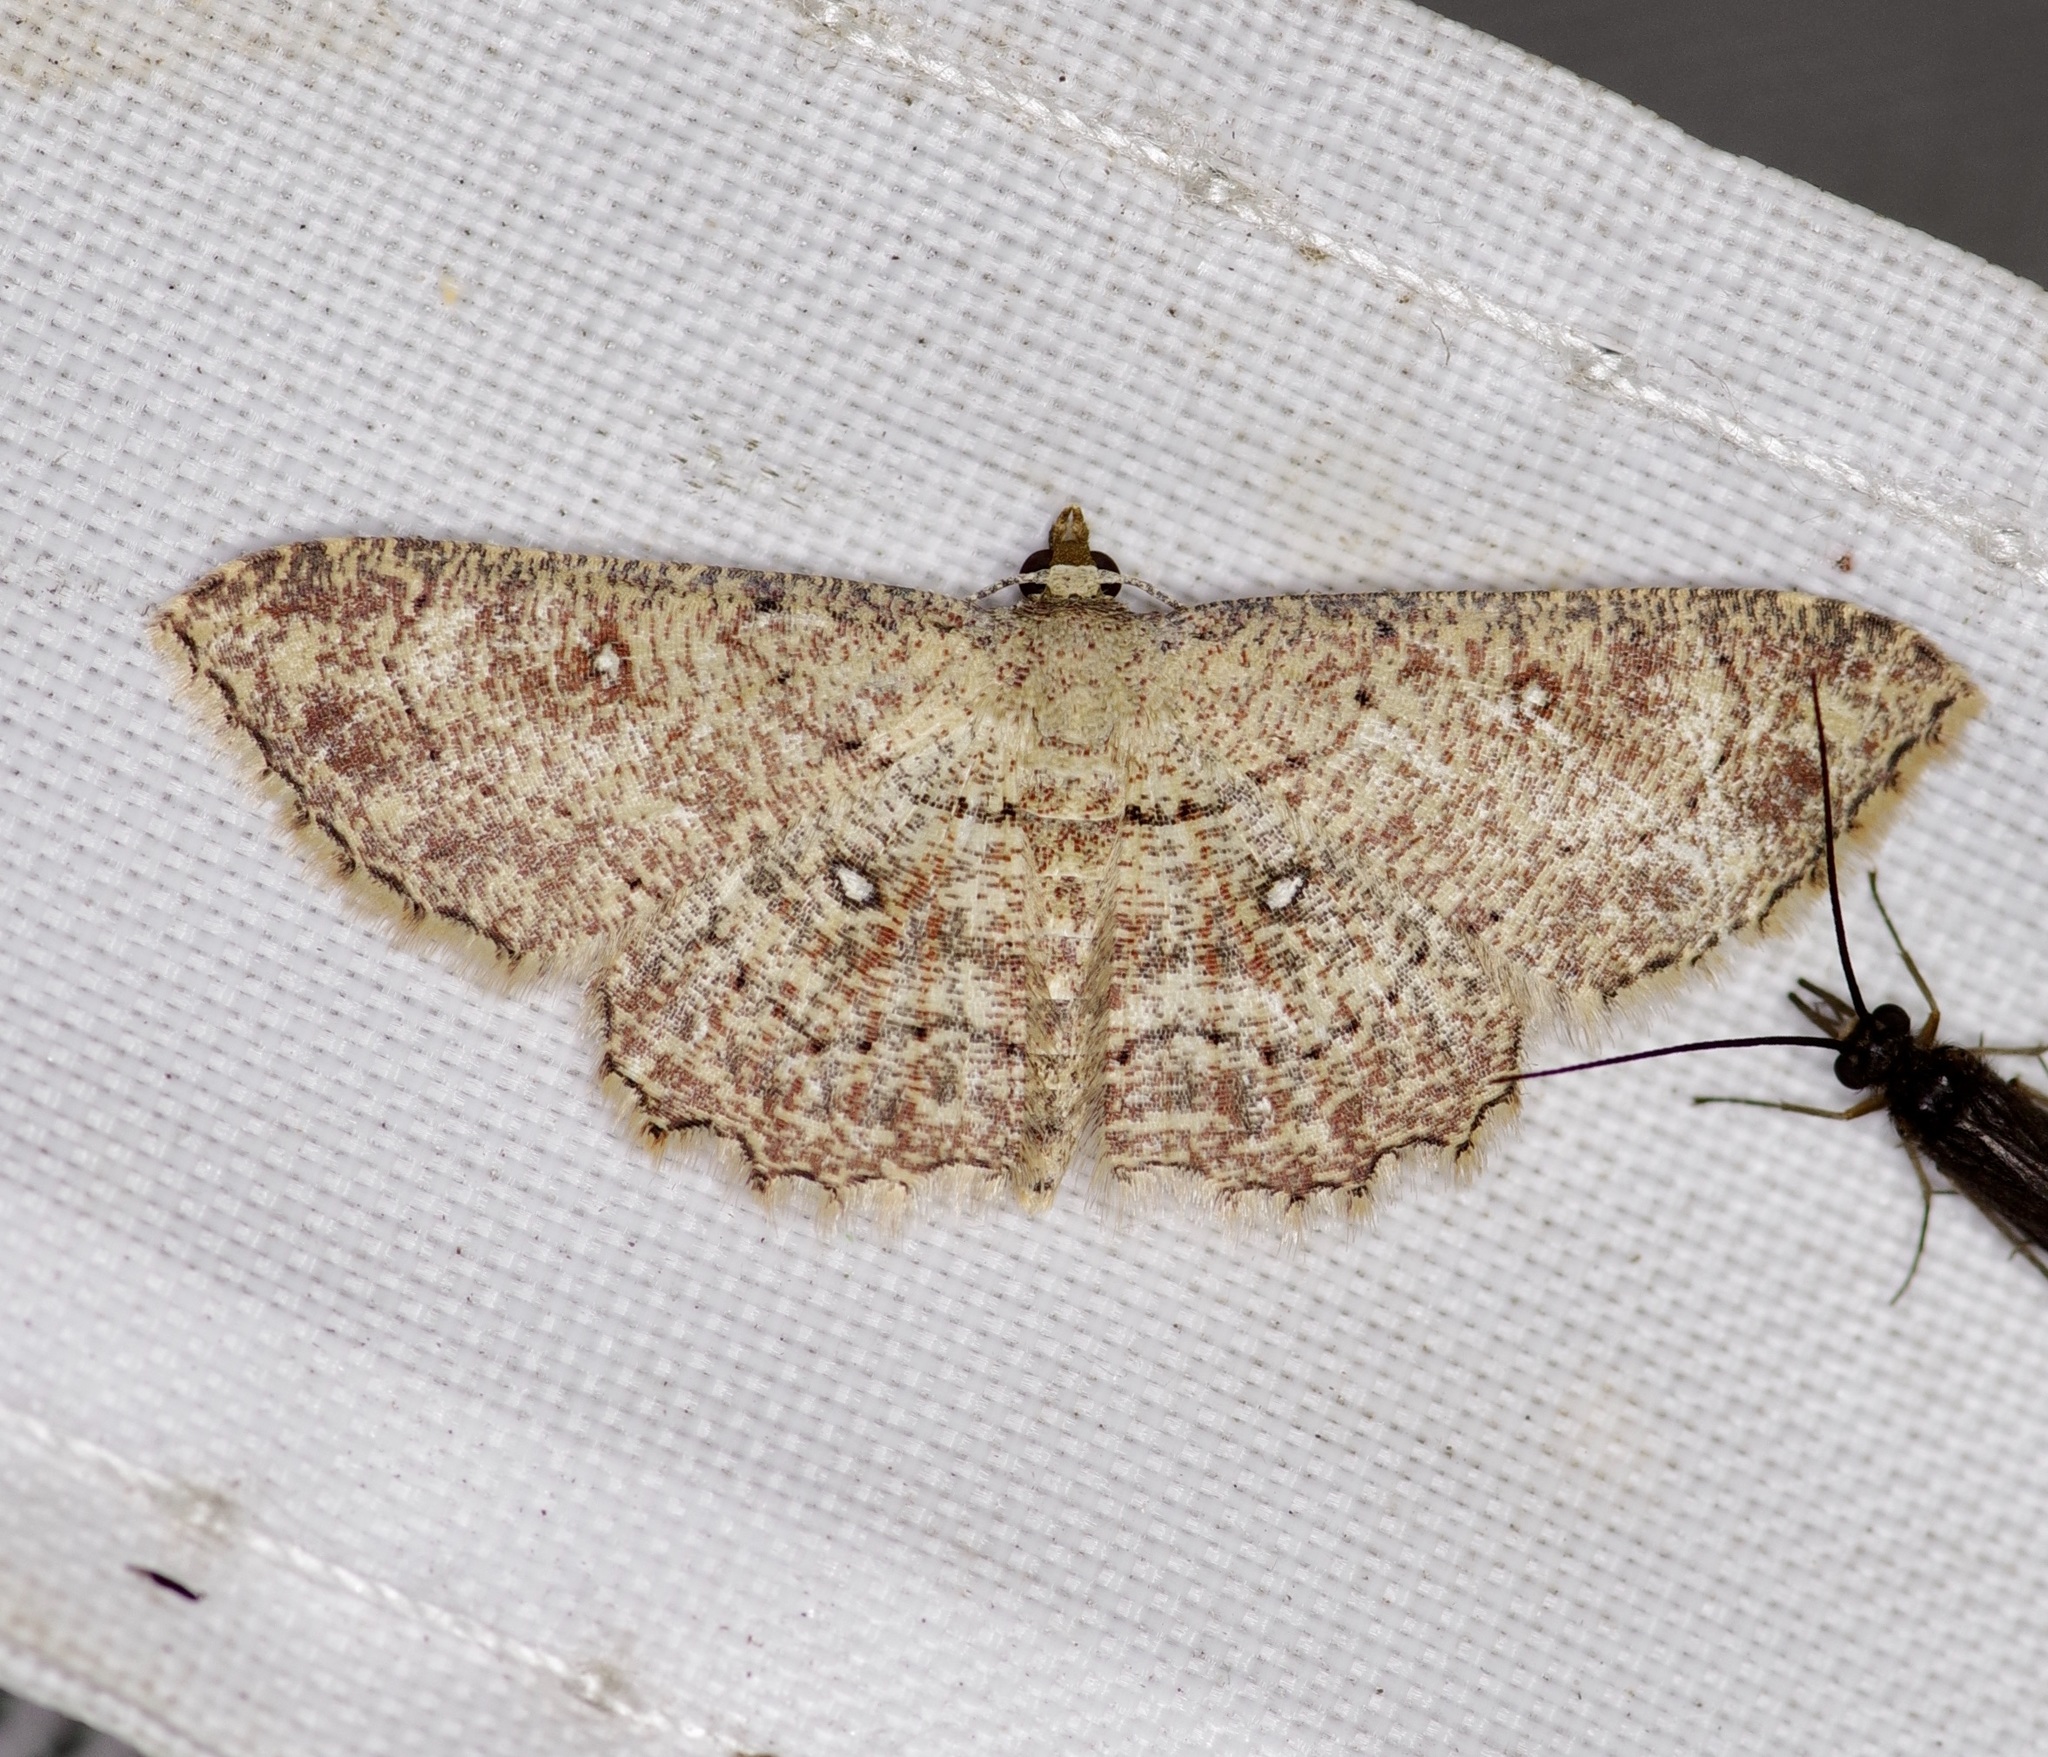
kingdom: Animalia
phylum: Arthropoda
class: Insecta
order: Lepidoptera
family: Geometridae
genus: Cyclophora
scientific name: Cyclophora nanaria
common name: Cankerworm
